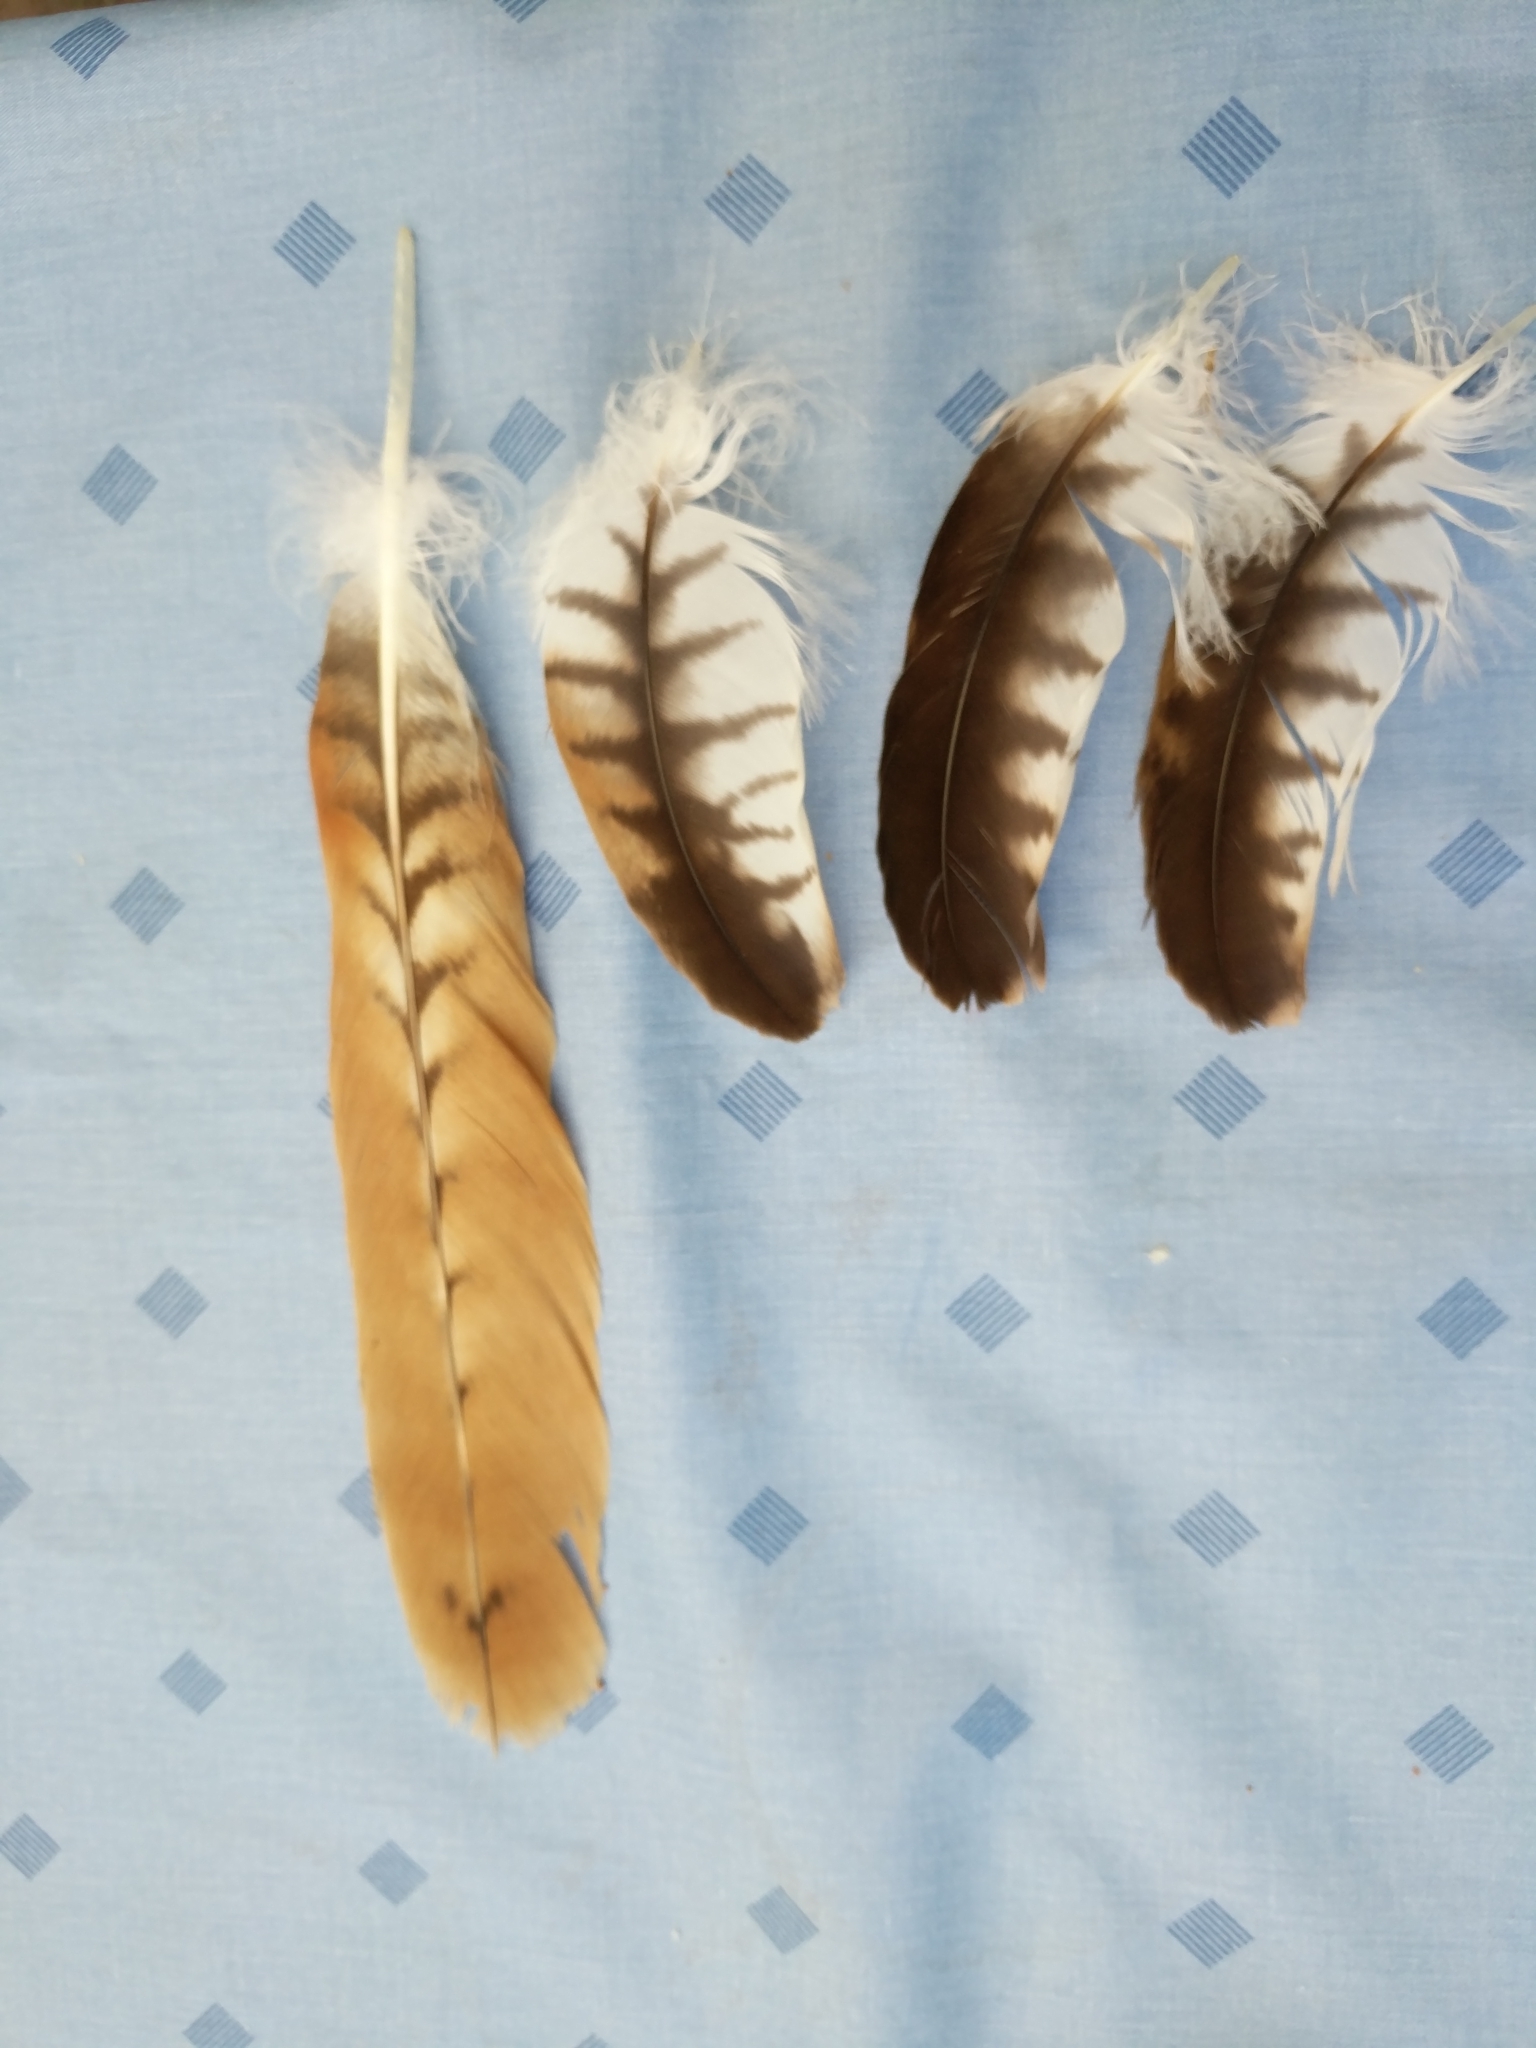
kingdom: Animalia
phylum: Chordata
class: Aves
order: Accipitriformes
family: Accipitridae
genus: Milvus
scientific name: Milvus milvus
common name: Red kite
